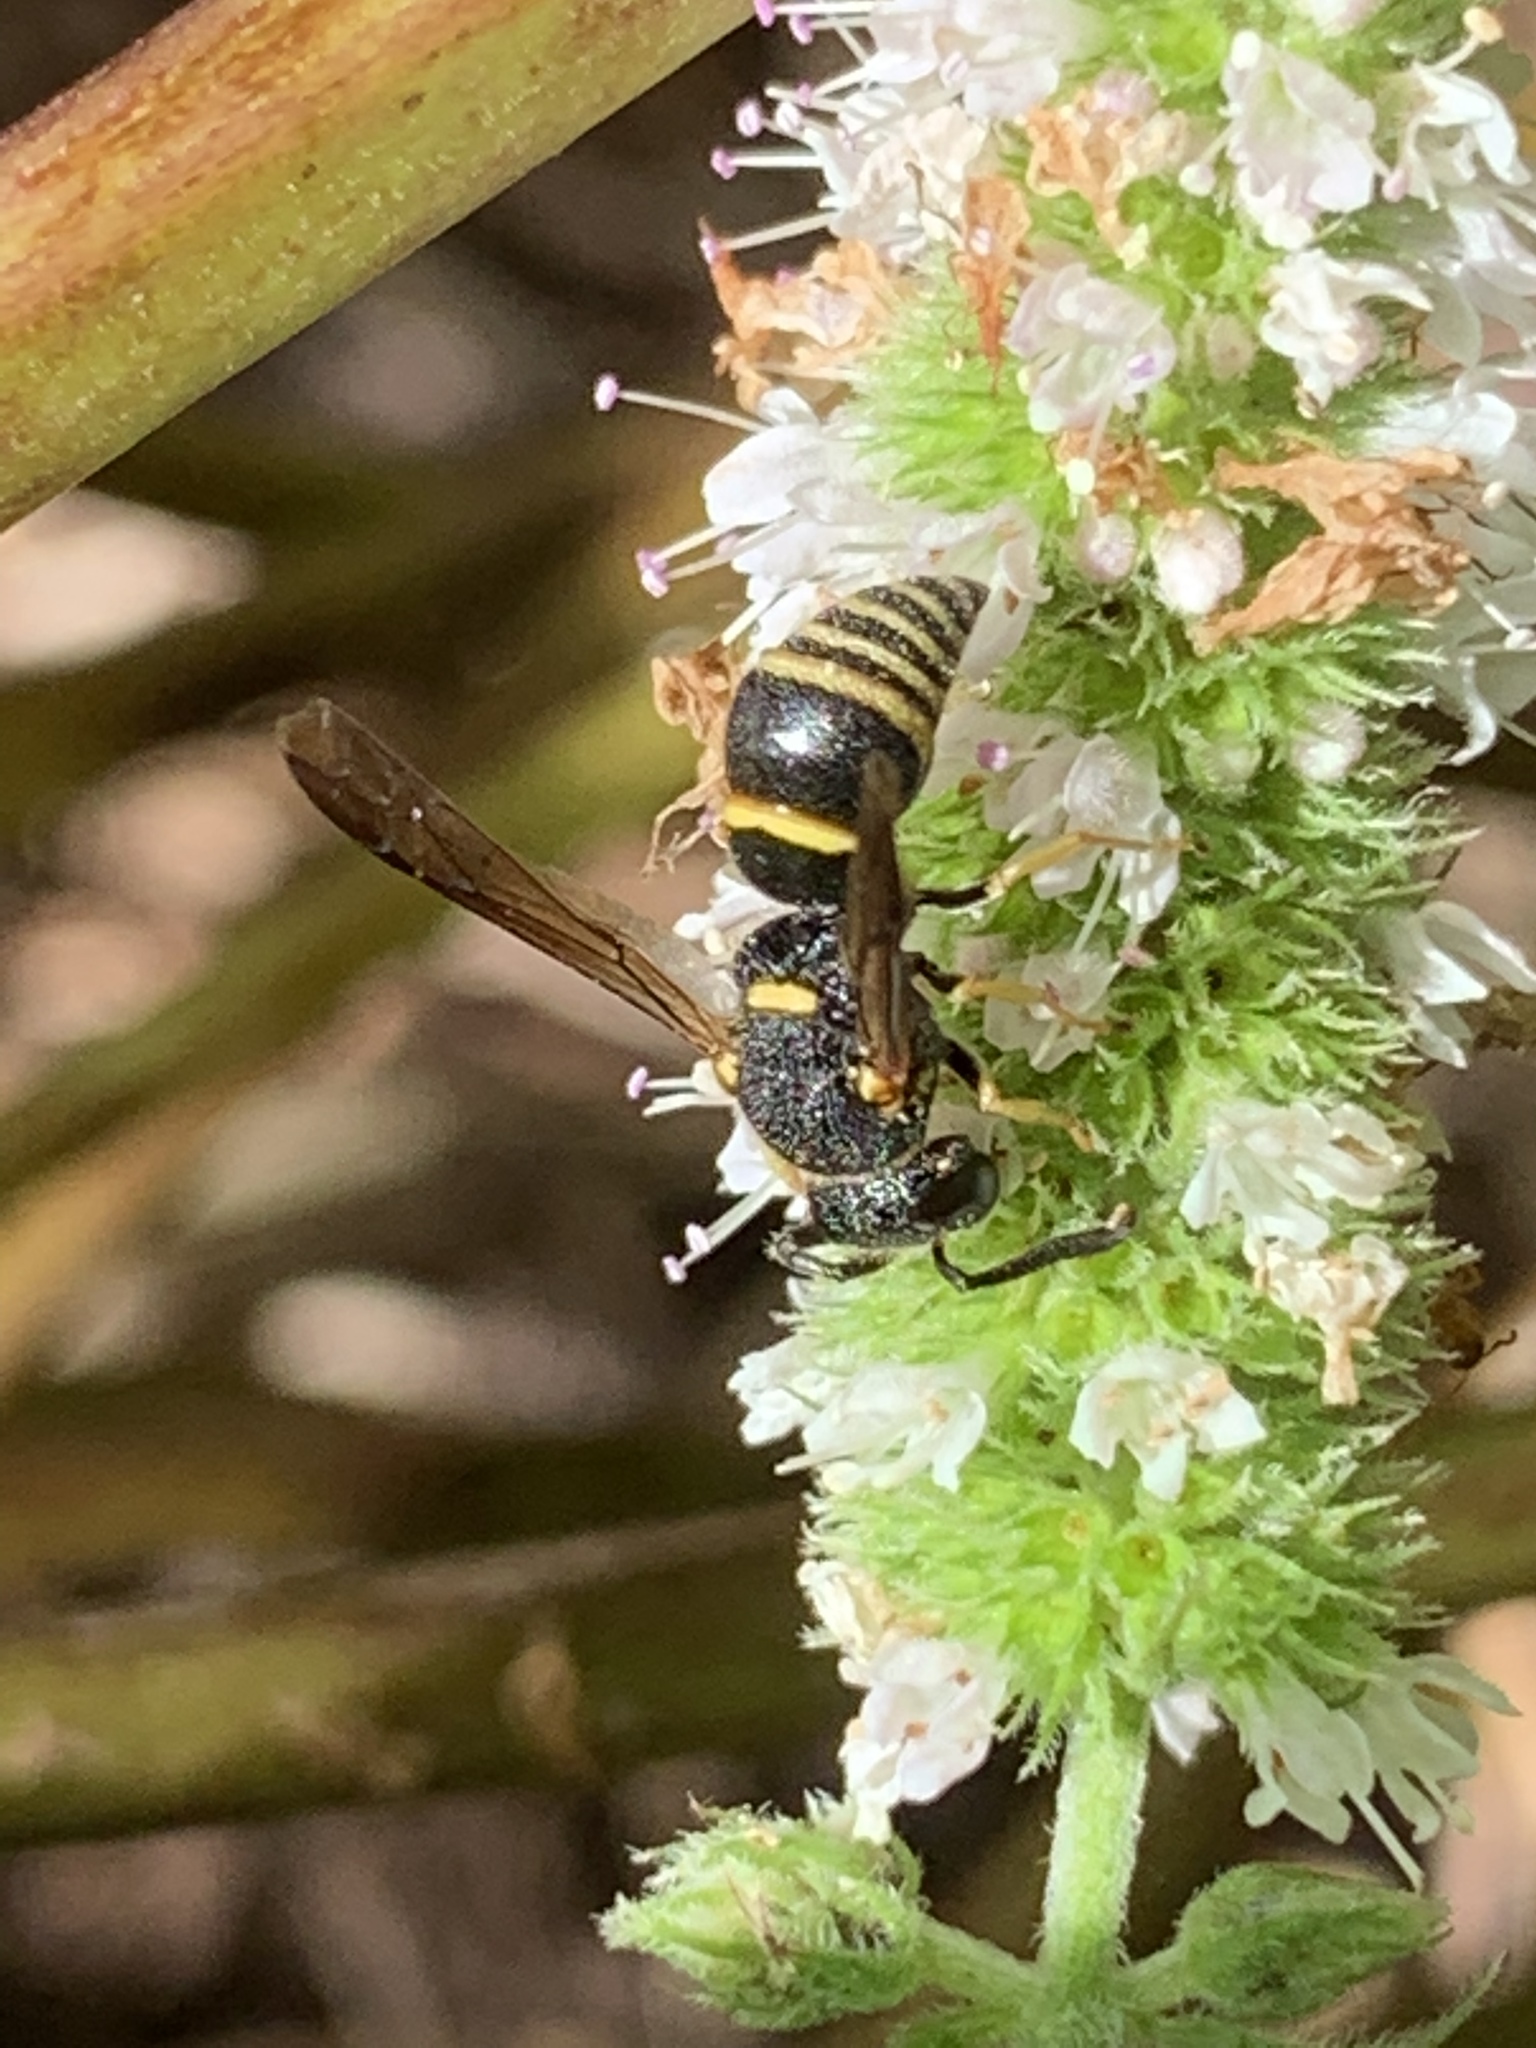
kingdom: Animalia
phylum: Arthropoda
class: Insecta
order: Hymenoptera
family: Eumenidae
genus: Euodynerus
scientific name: Euodynerus foraminatus
